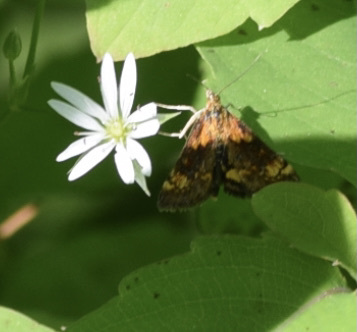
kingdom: Animalia
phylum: Arthropoda
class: Insecta
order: Lepidoptera
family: Crambidae
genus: Pyrausta
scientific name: Pyrausta orphisalis
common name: Orange mint moth
